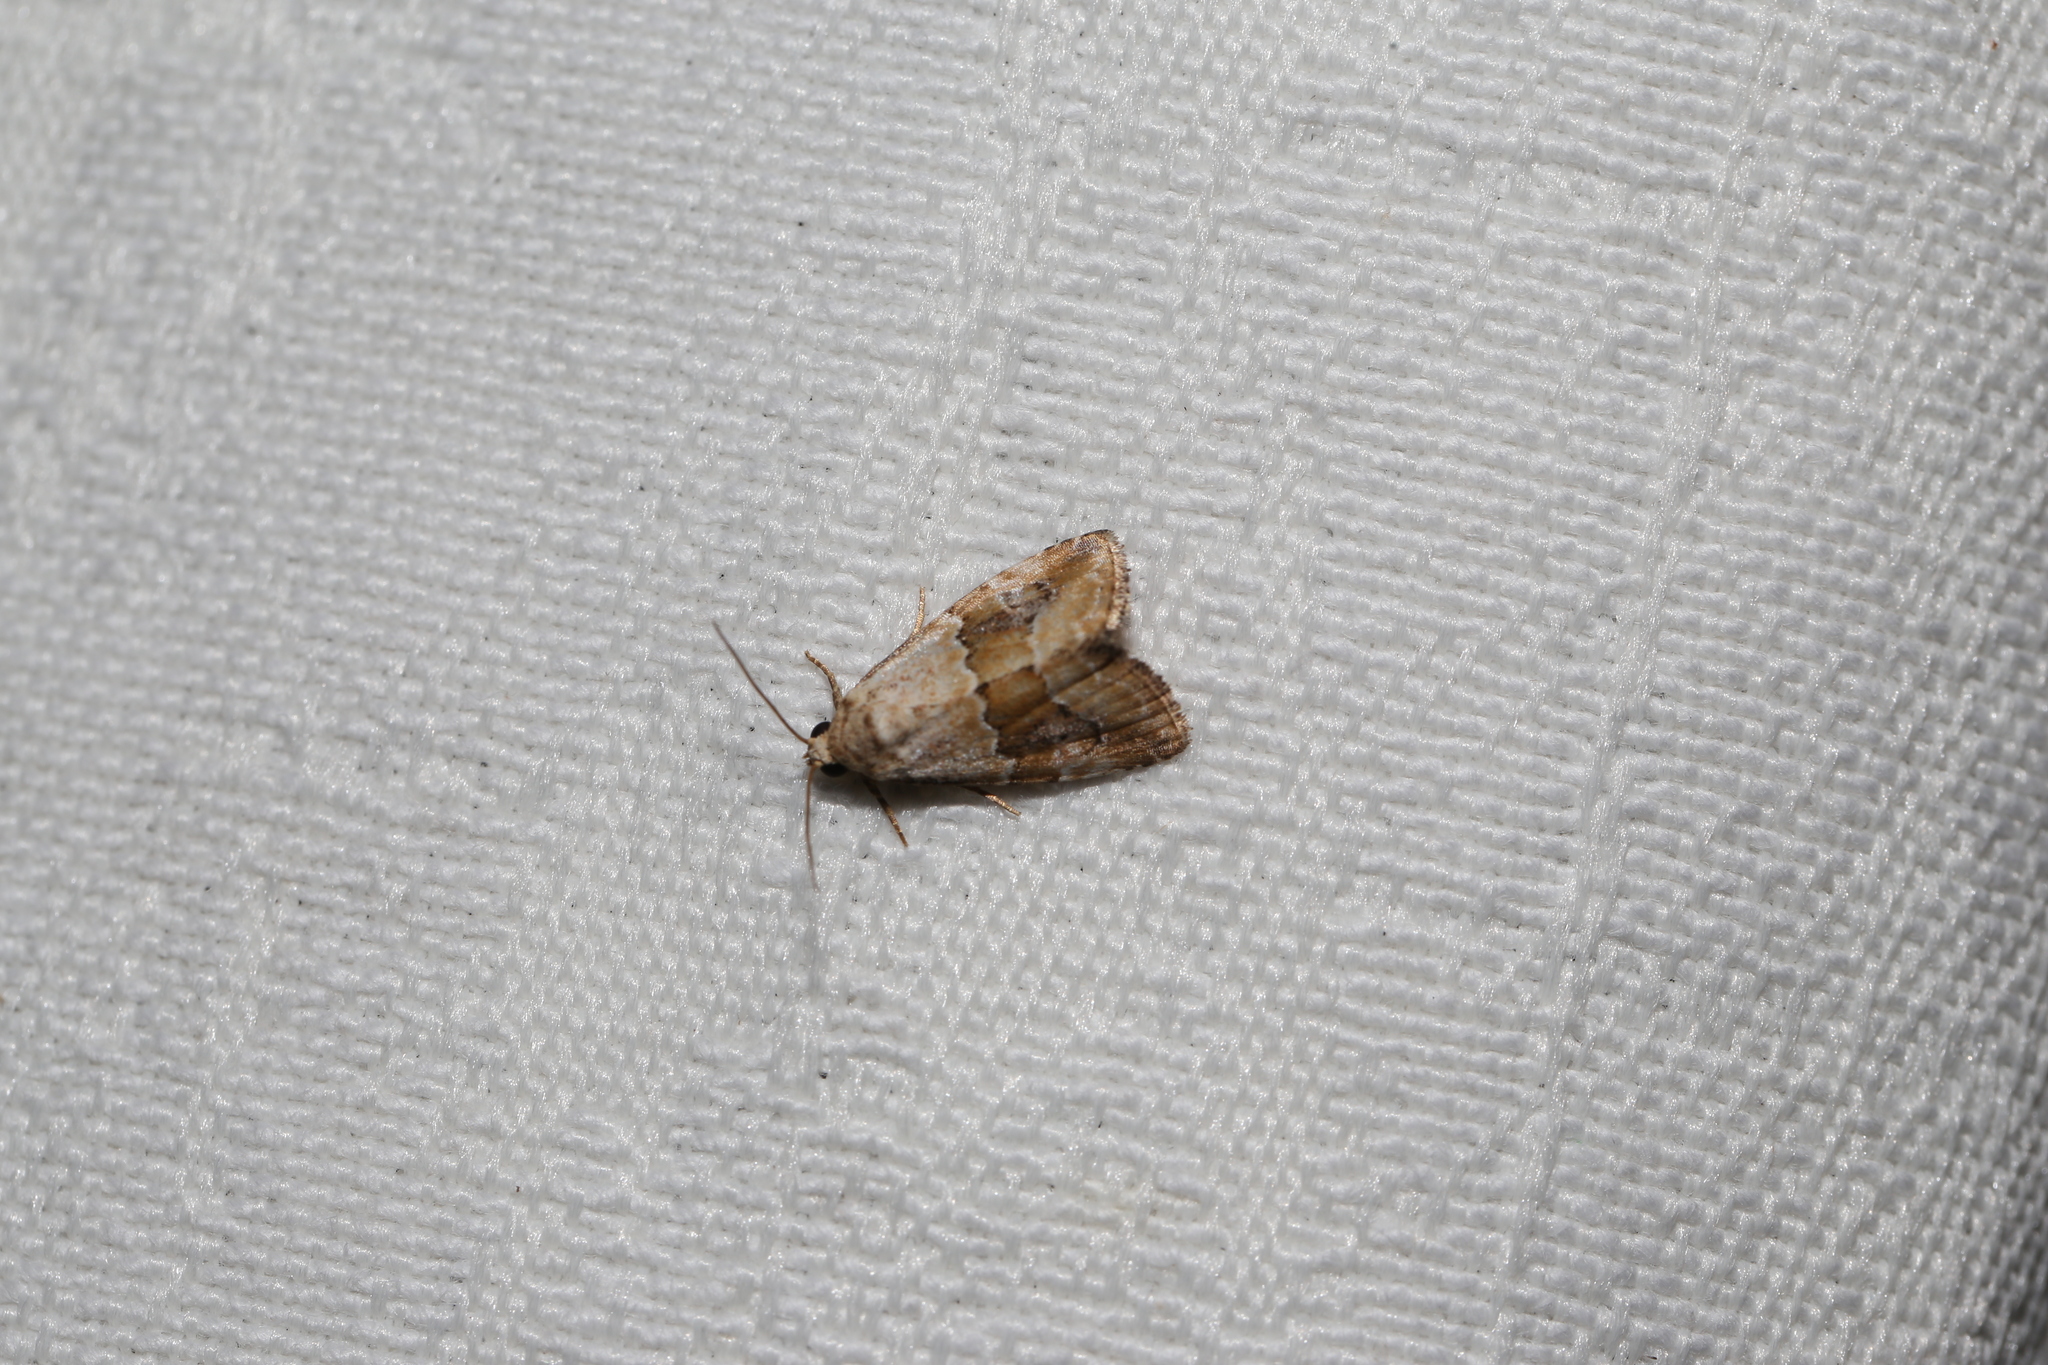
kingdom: Animalia
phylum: Arthropoda
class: Insecta
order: Lepidoptera
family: Noctuidae
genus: Maliattha
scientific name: Maliattha amorpha
